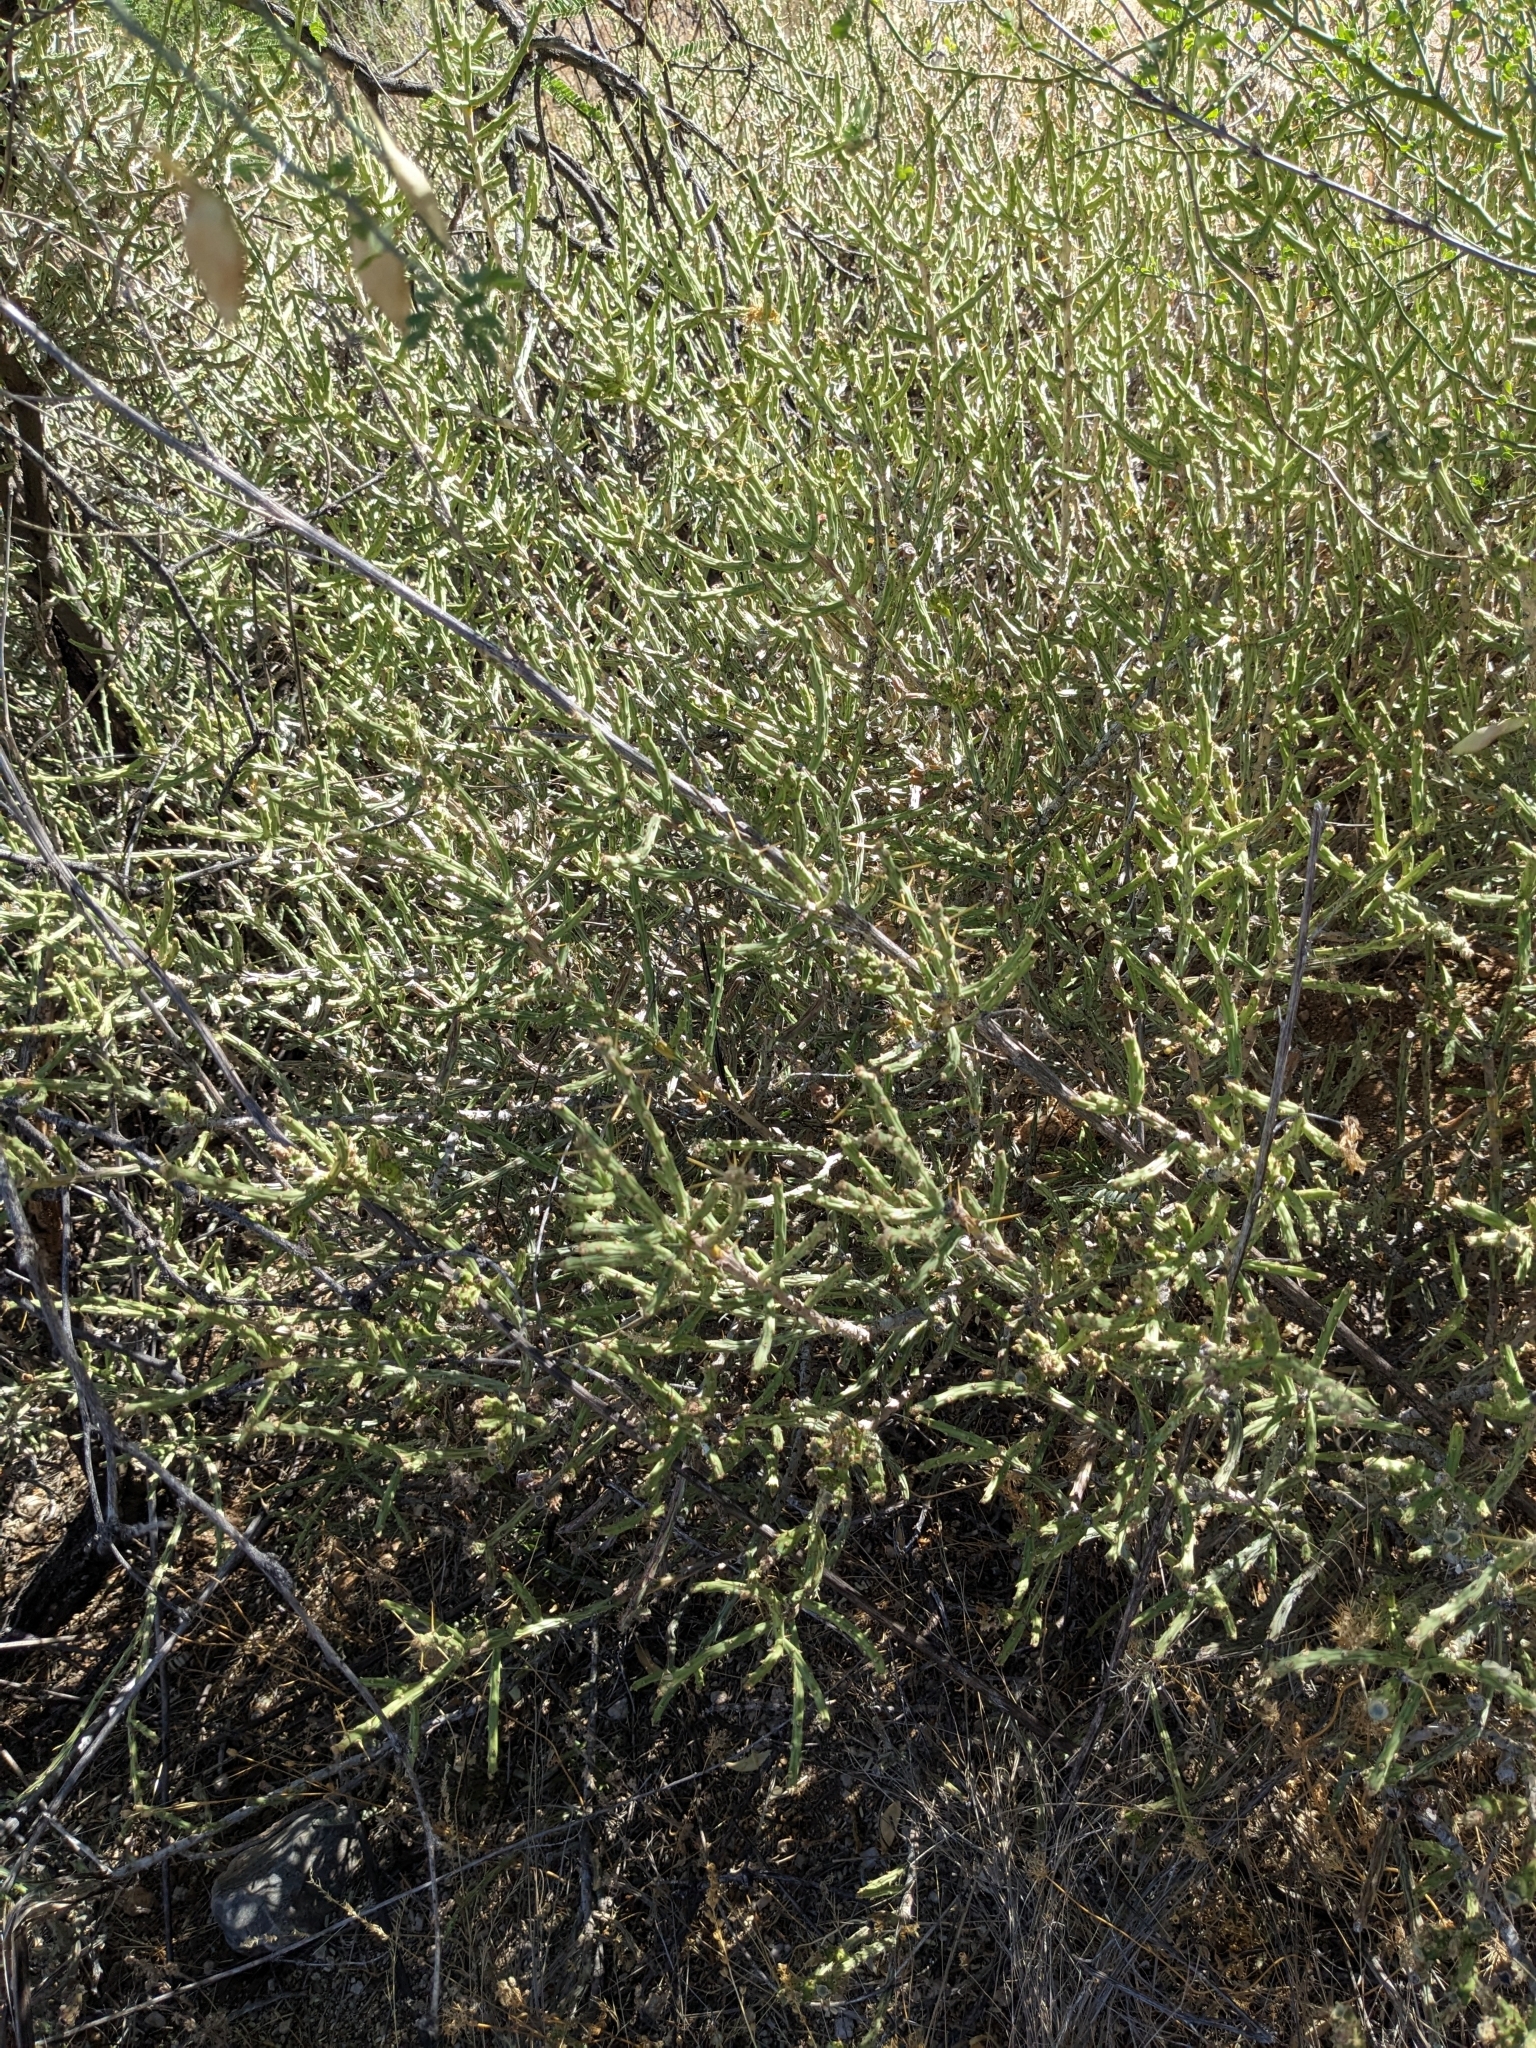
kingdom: Plantae
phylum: Tracheophyta
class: Magnoliopsida
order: Caryophyllales
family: Cactaceae
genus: Cylindropuntia
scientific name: Cylindropuntia leptocaulis
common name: Christmas cactus
